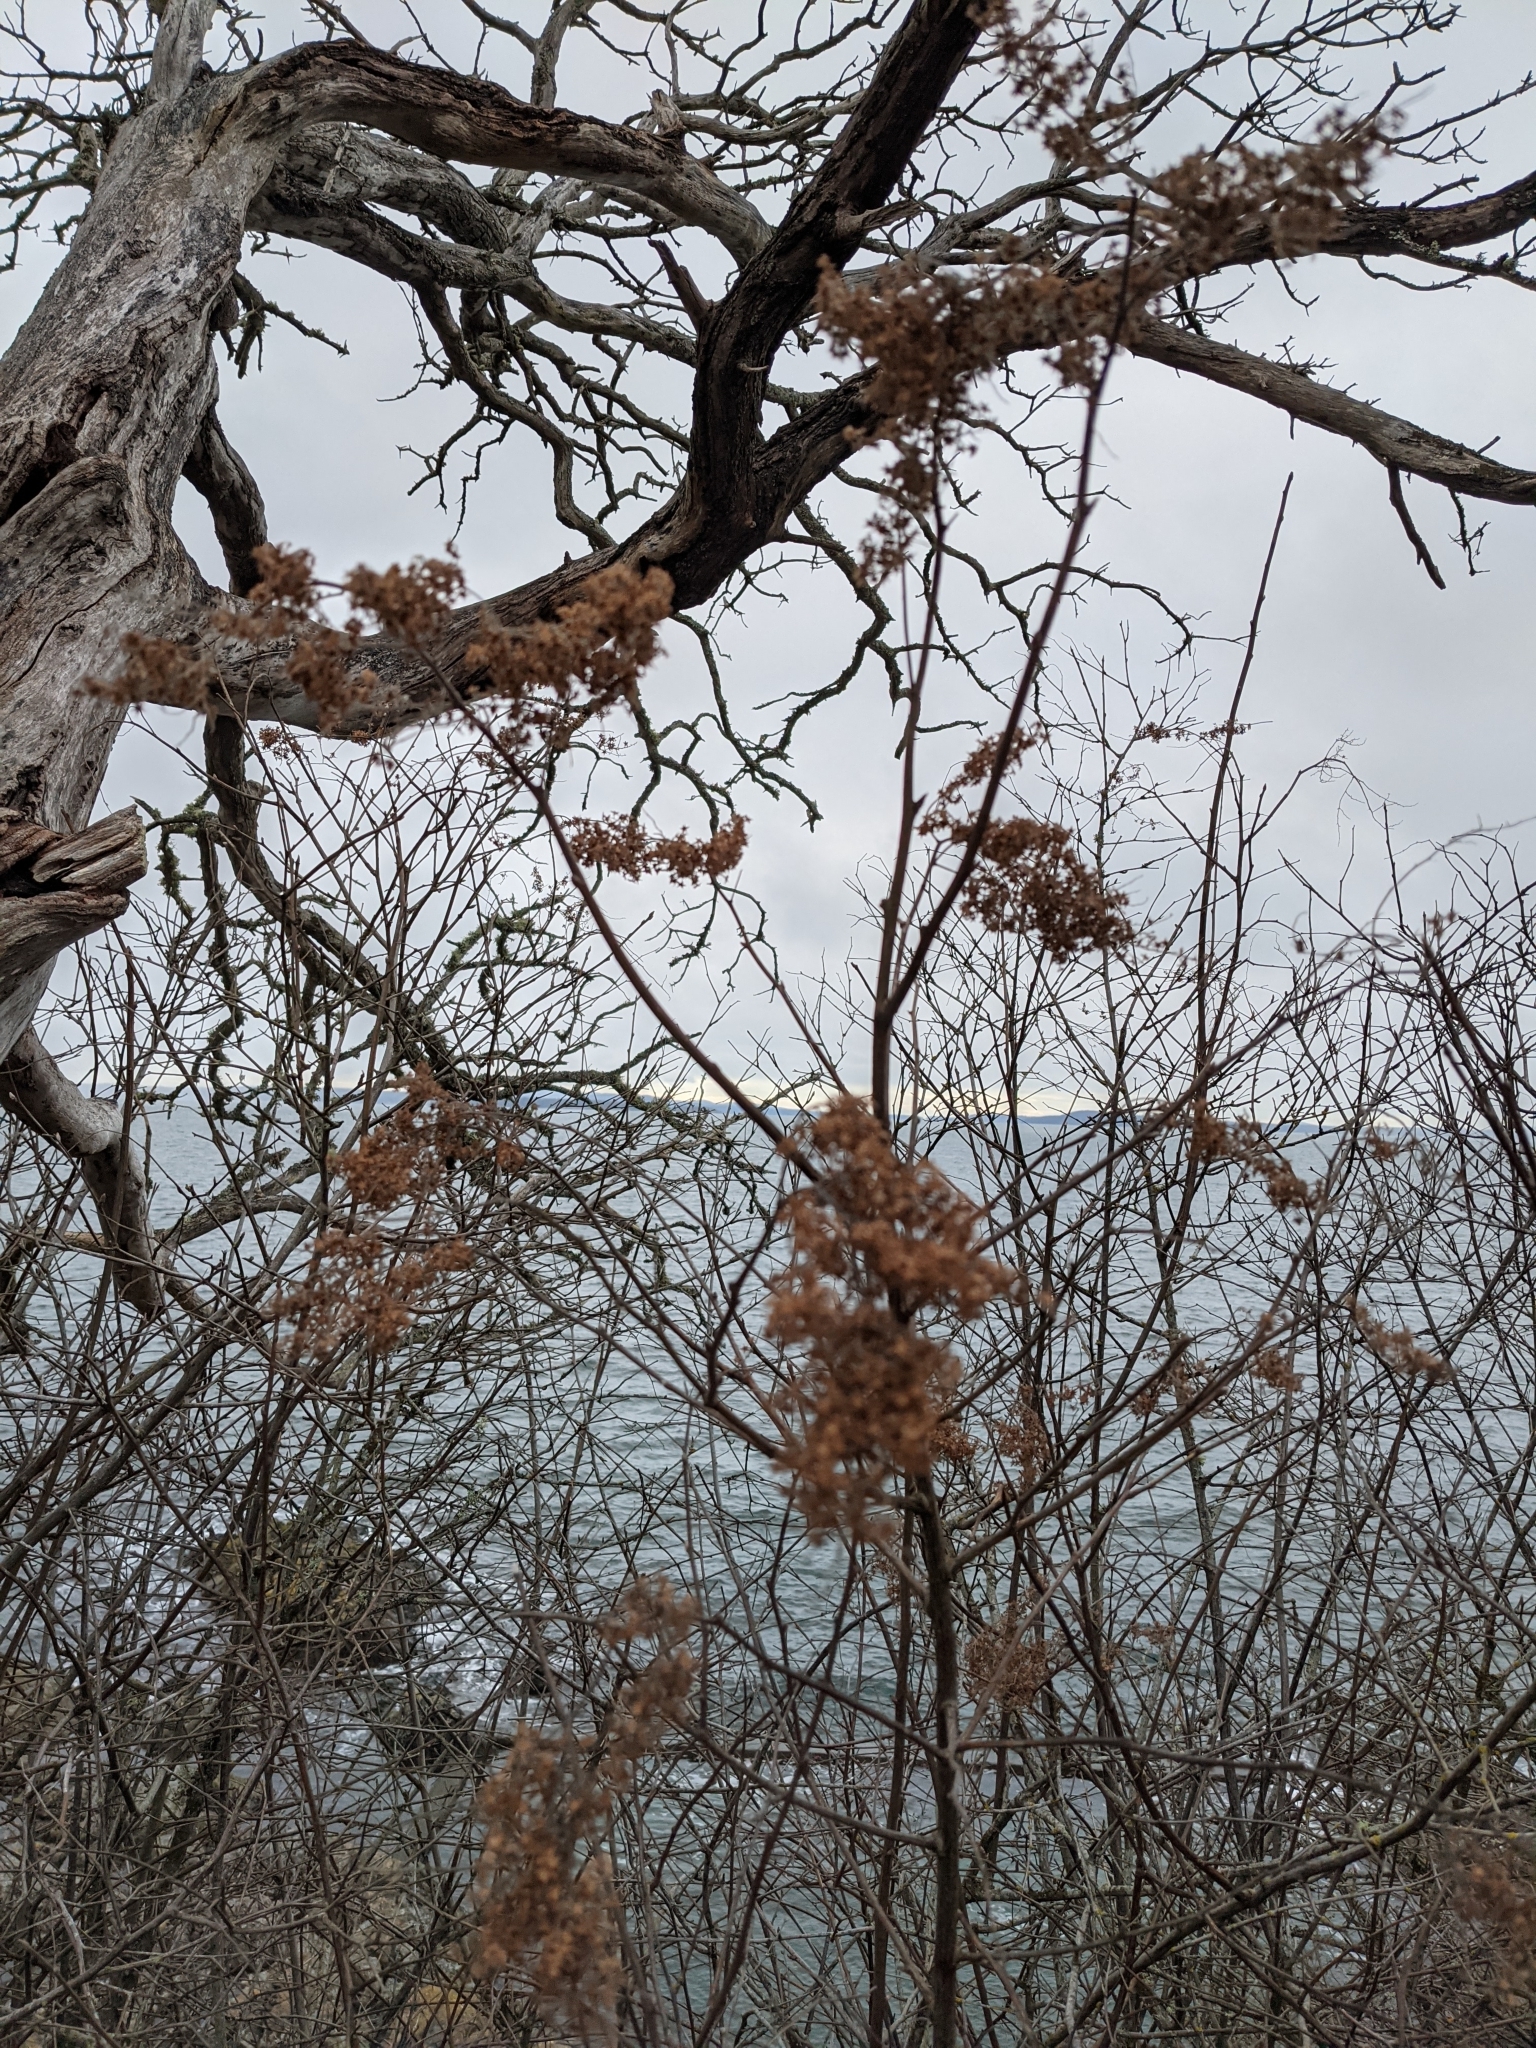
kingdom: Plantae
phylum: Tracheophyta
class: Magnoliopsida
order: Rosales
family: Rosaceae
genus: Holodiscus
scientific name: Holodiscus discolor
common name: Oceanspray
